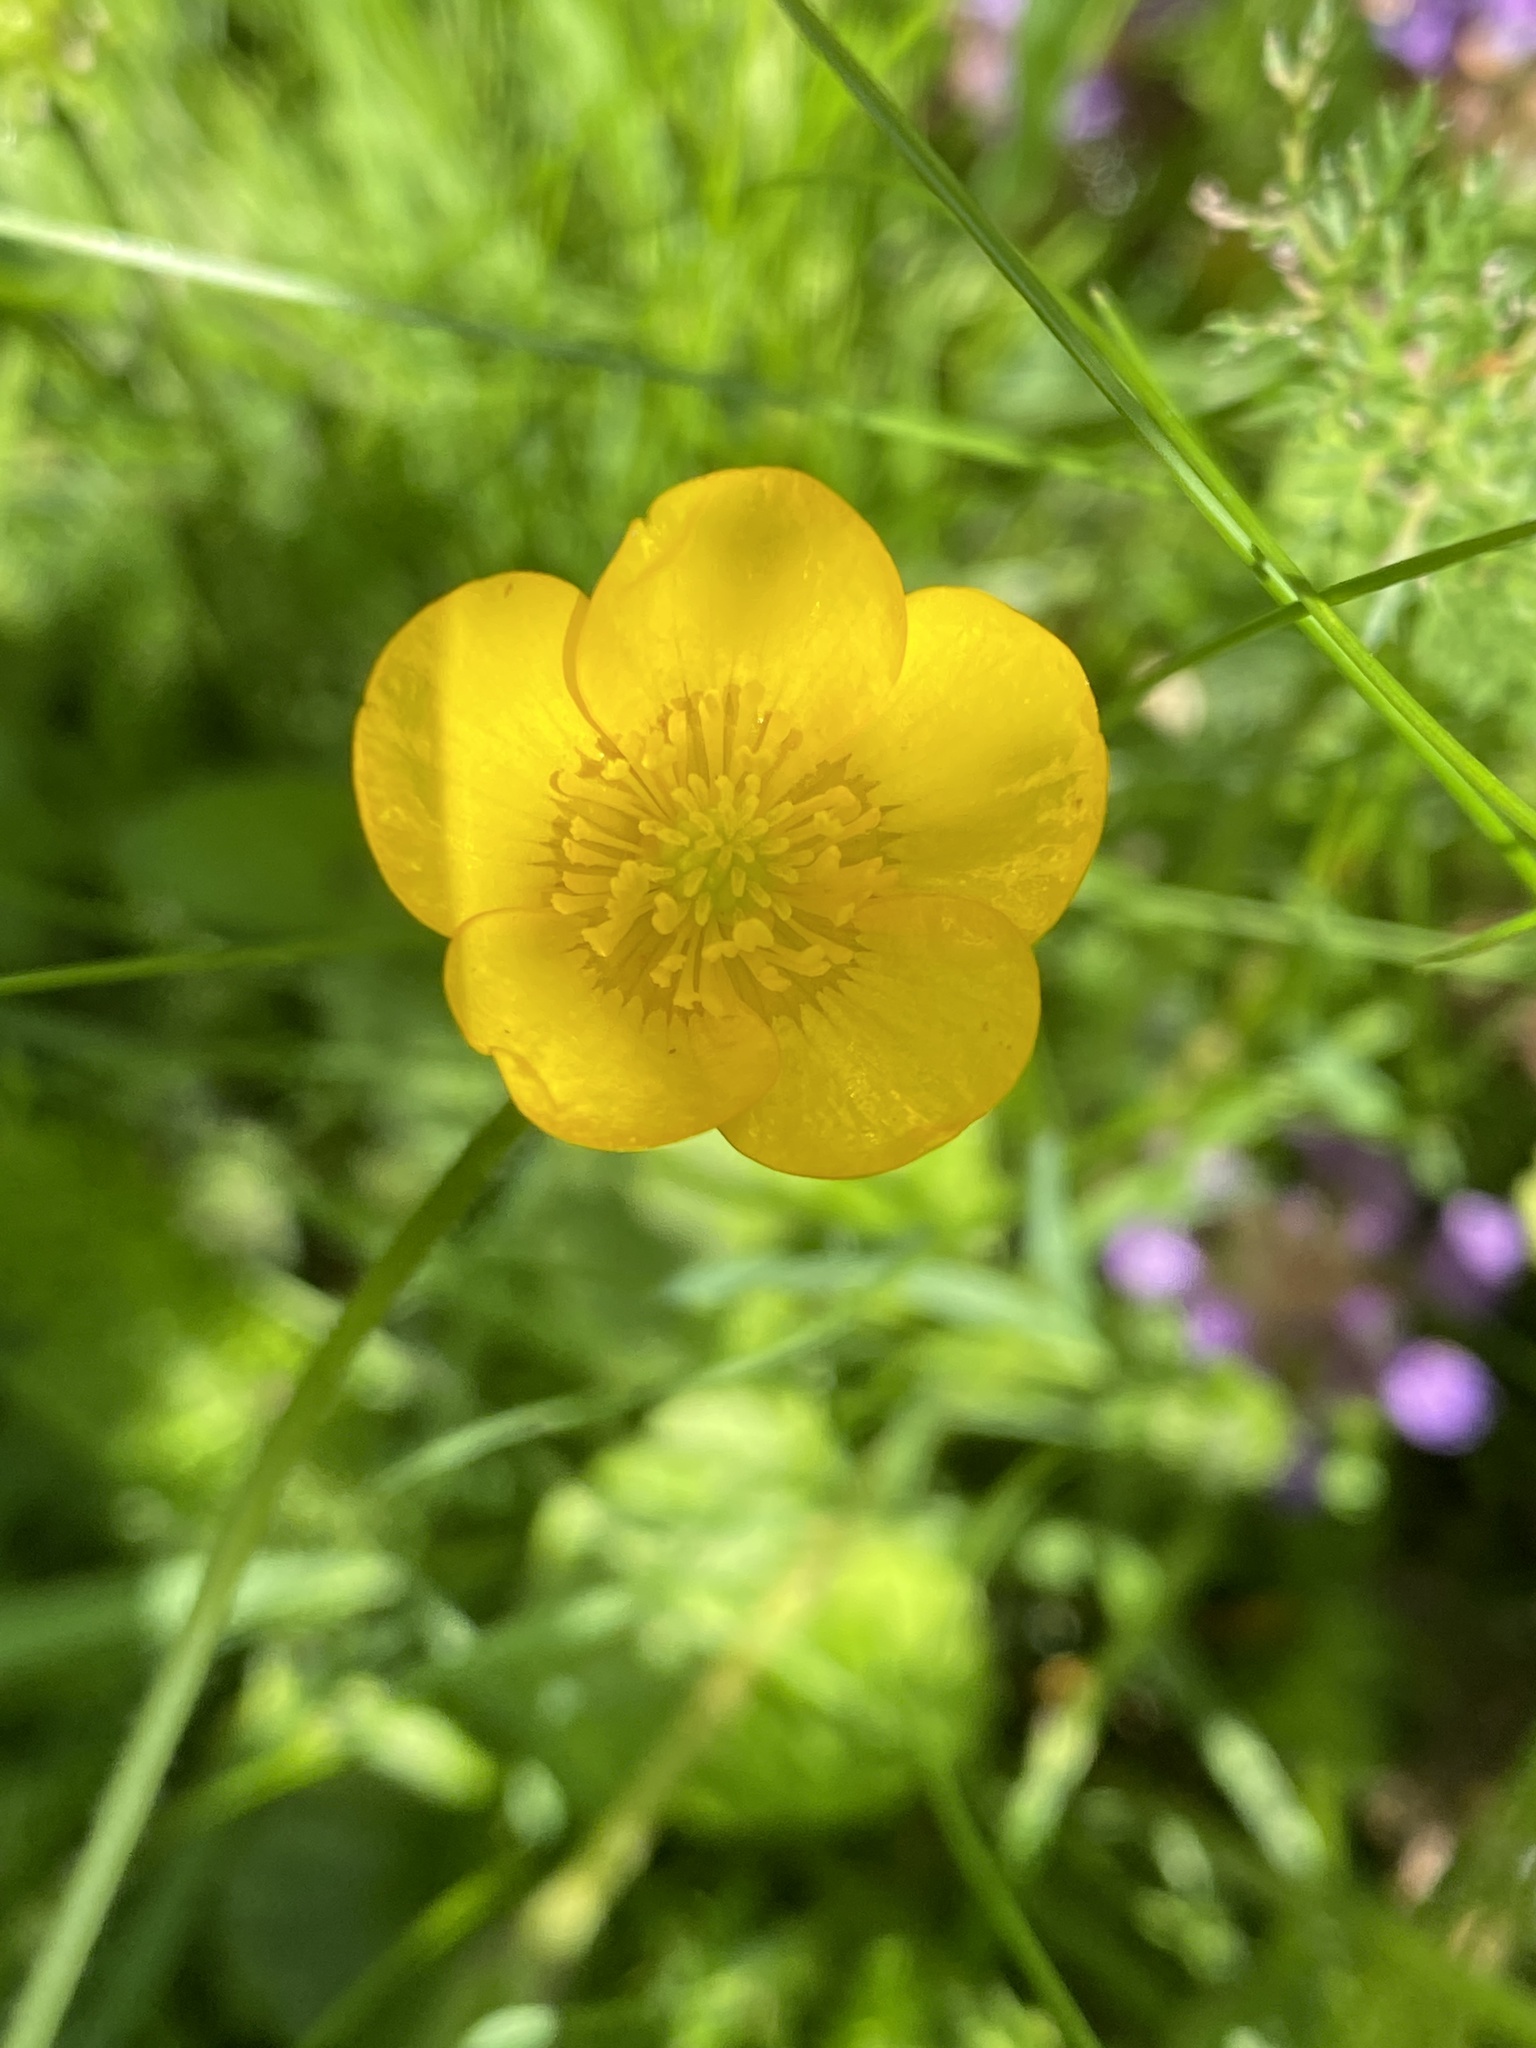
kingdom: Plantae
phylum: Tracheophyta
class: Magnoliopsida
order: Ranunculales
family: Ranunculaceae
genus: Ranunculus
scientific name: Ranunculus repens
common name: Creeping buttercup
